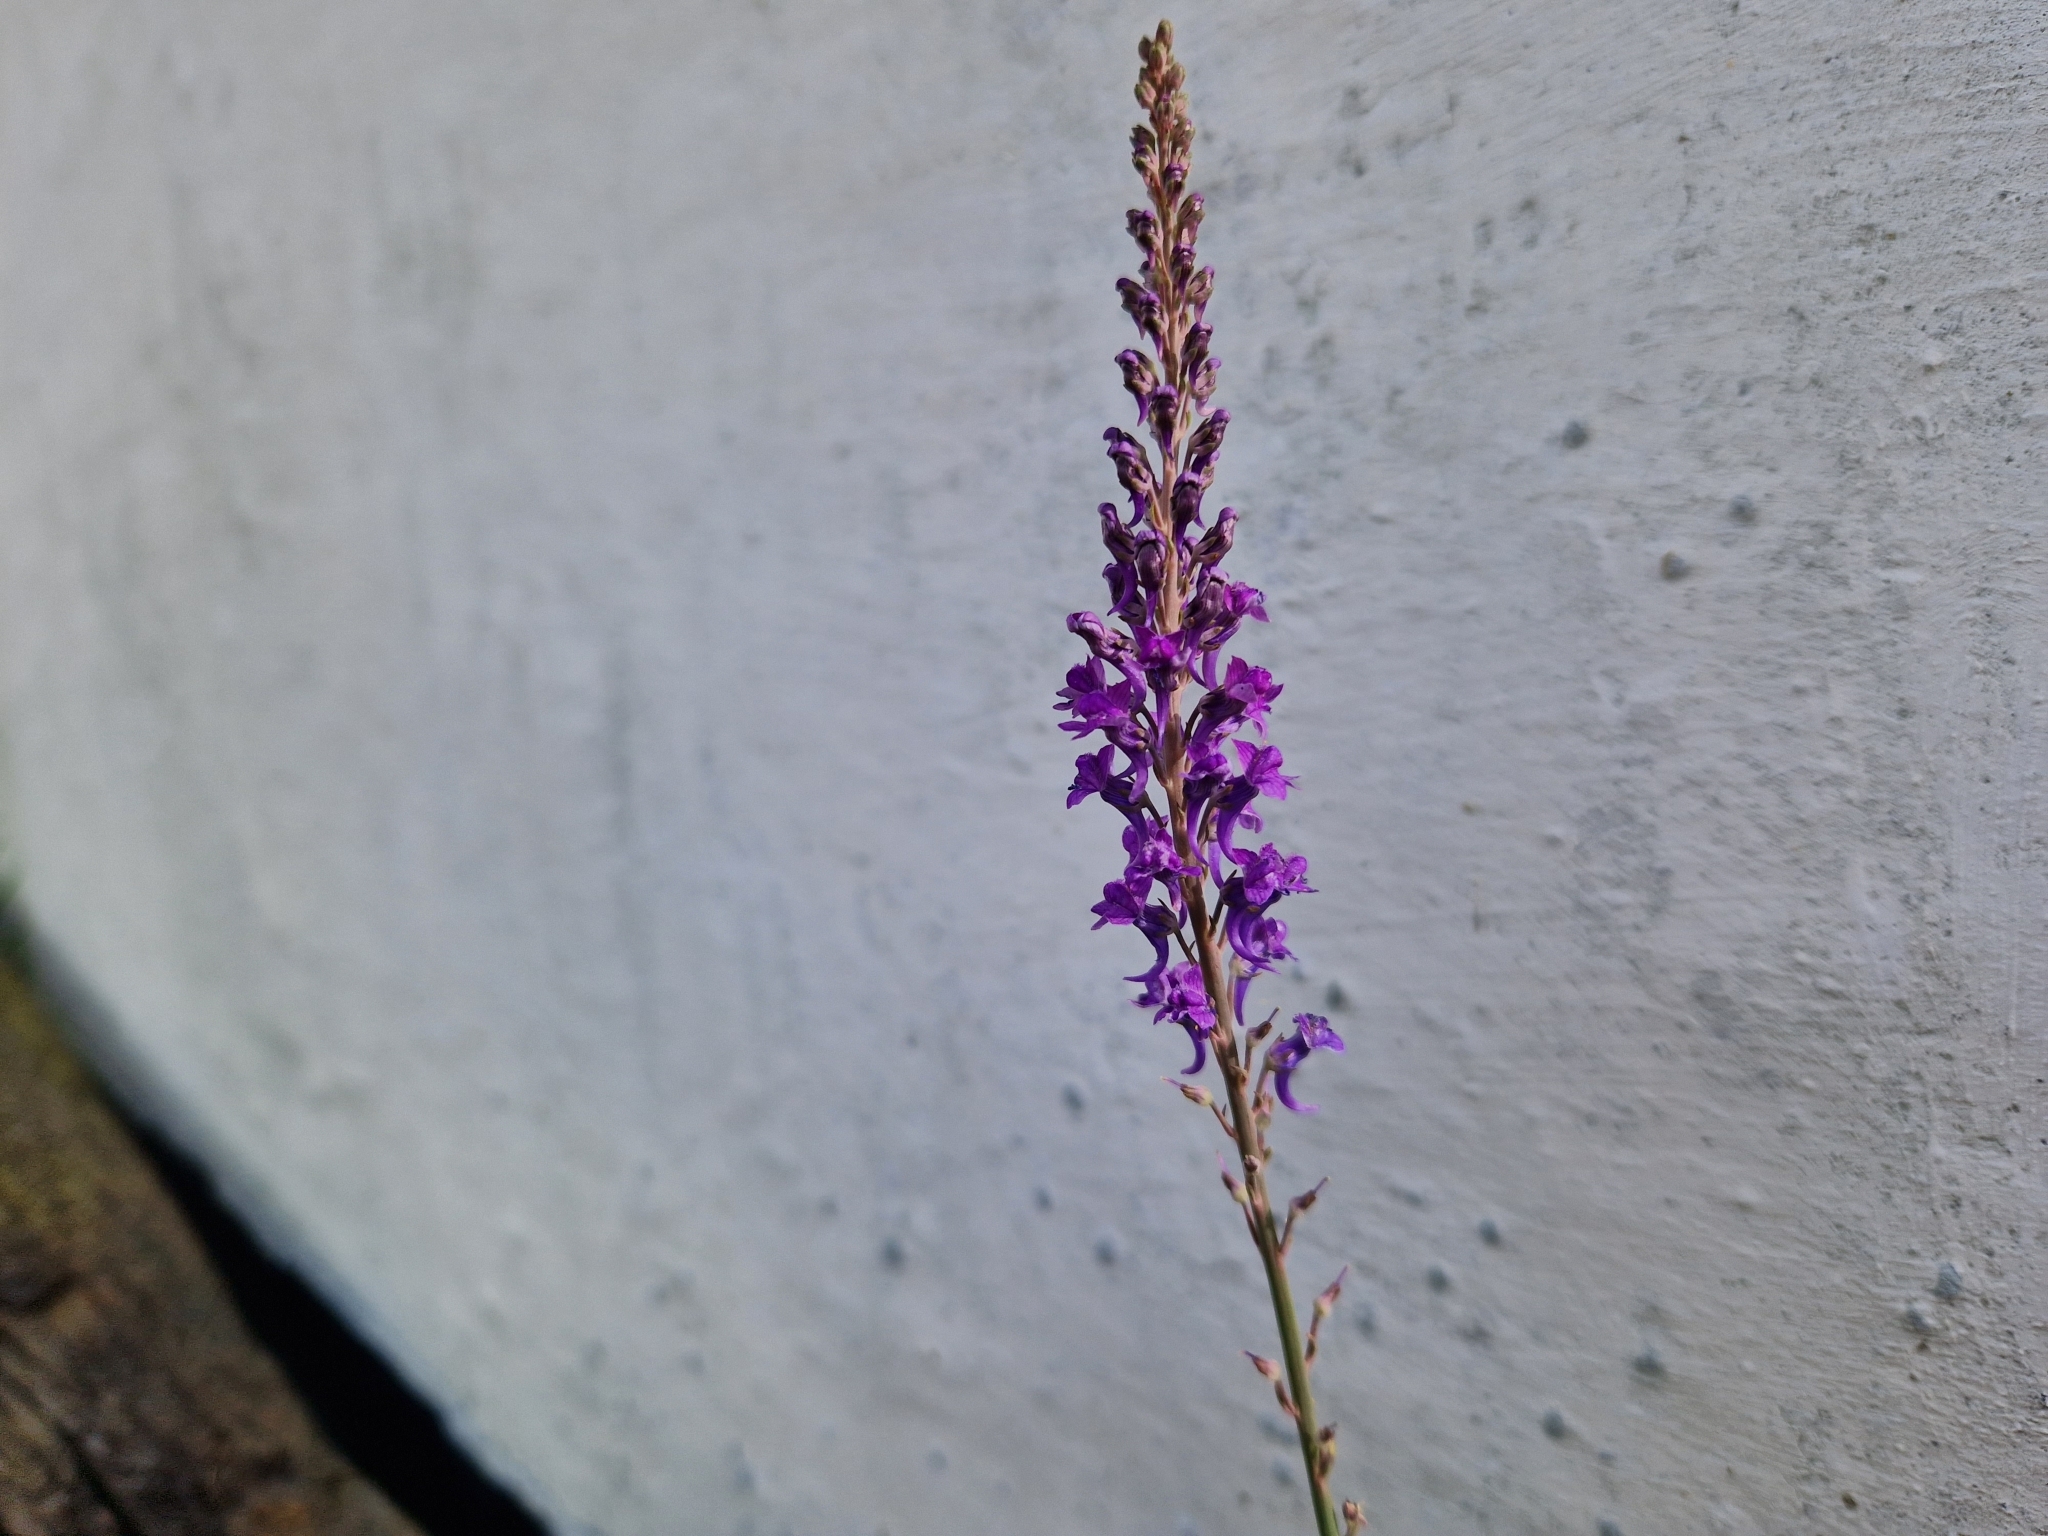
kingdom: Plantae
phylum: Tracheophyta
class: Magnoliopsida
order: Lamiales
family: Plantaginaceae
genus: Linaria
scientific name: Linaria purpurea
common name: Purple toadflax
